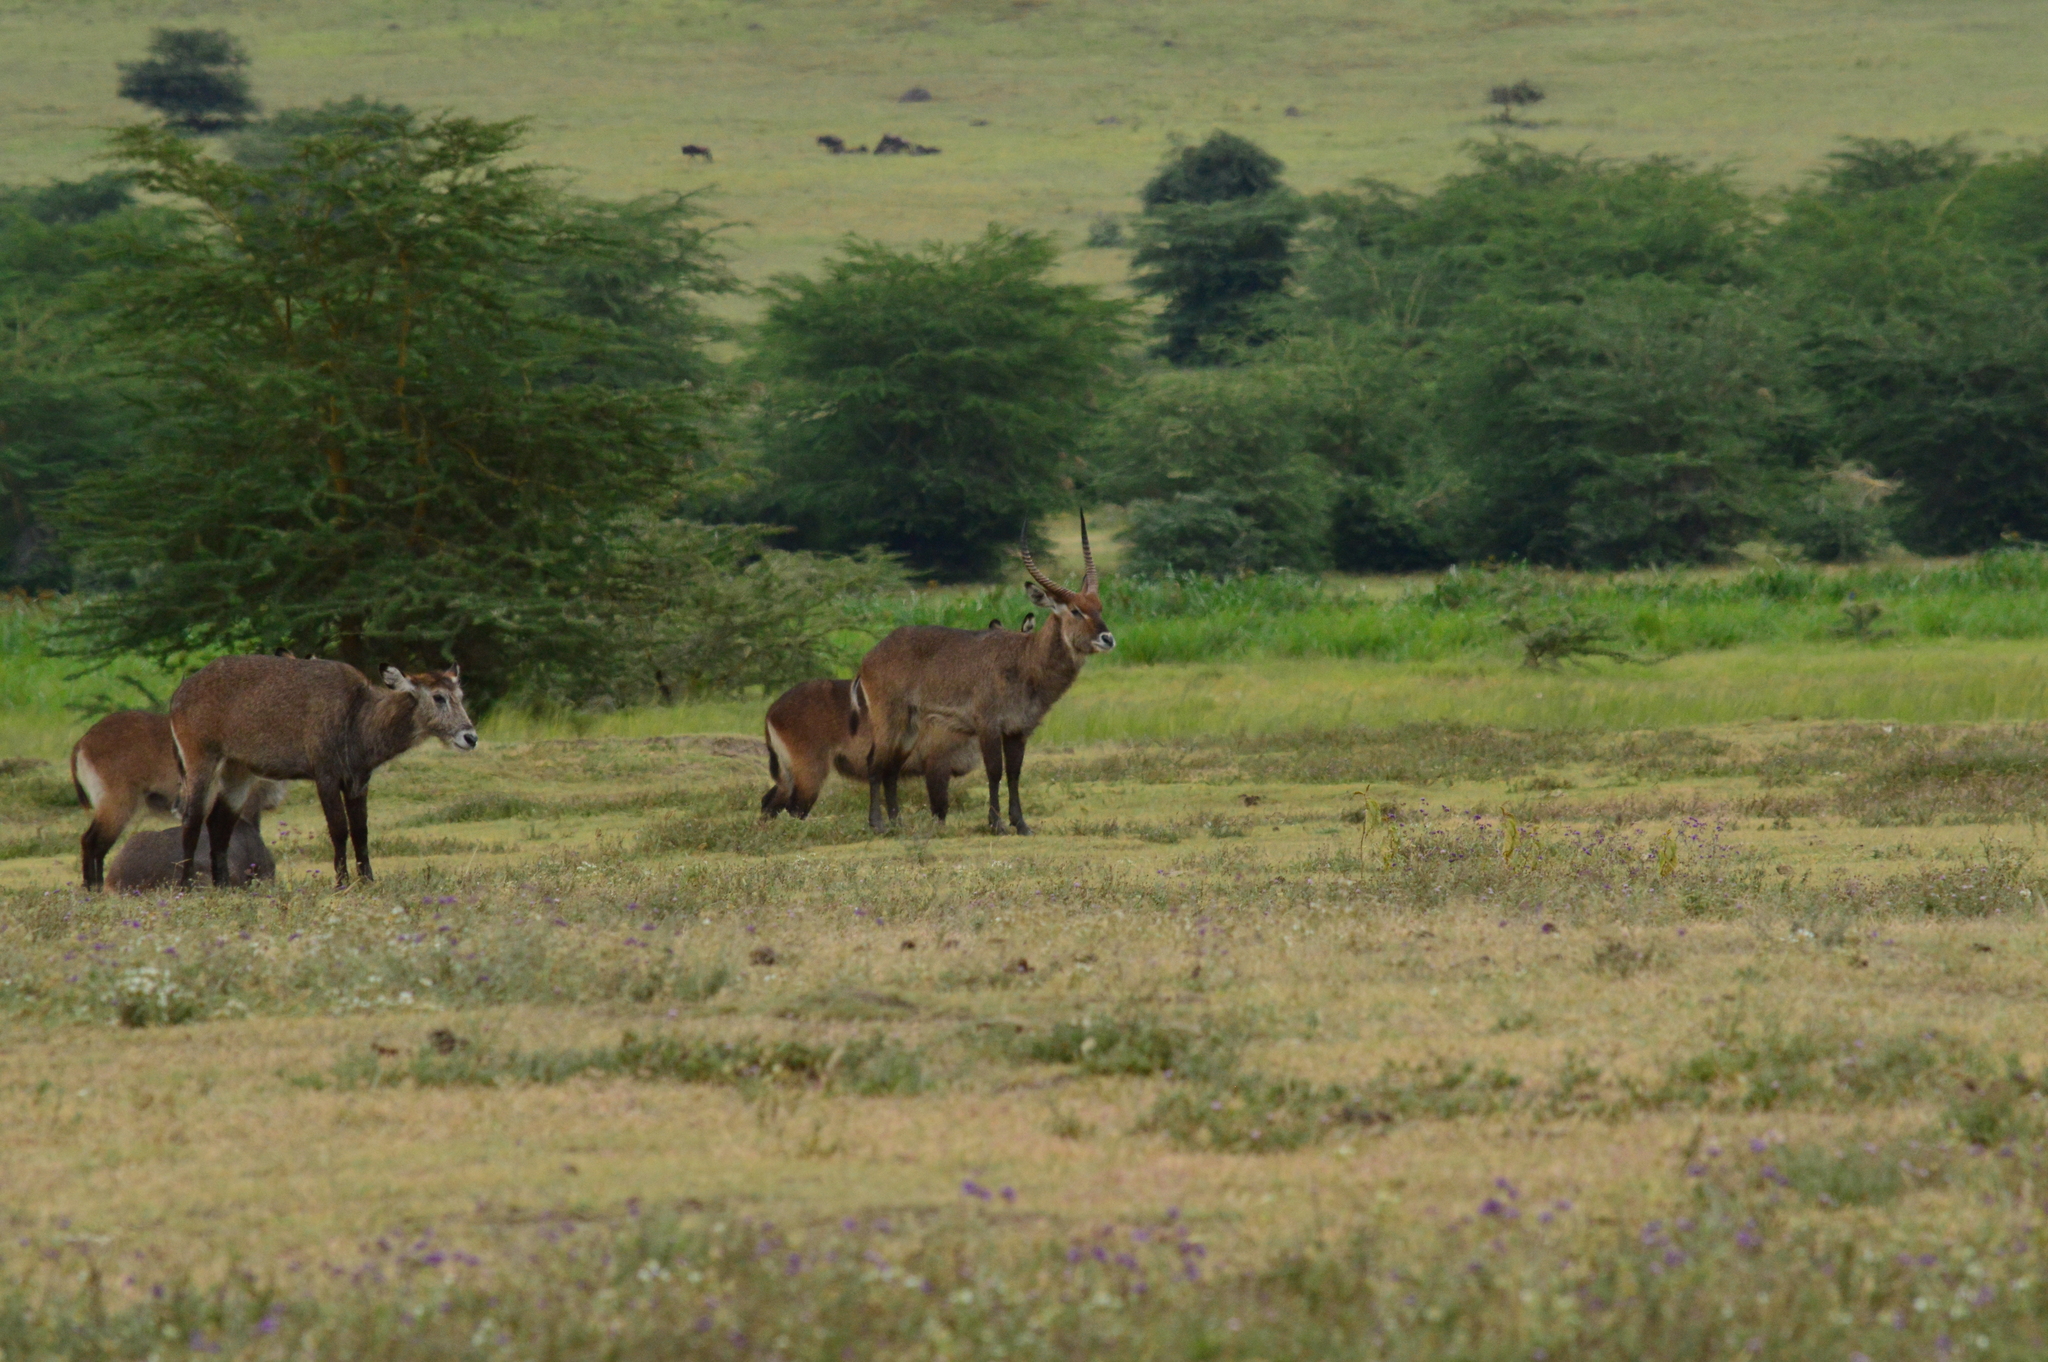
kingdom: Animalia
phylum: Chordata
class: Mammalia
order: Artiodactyla
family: Bovidae
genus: Kobus
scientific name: Kobus ellipsiprymnus
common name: Waterbuck
